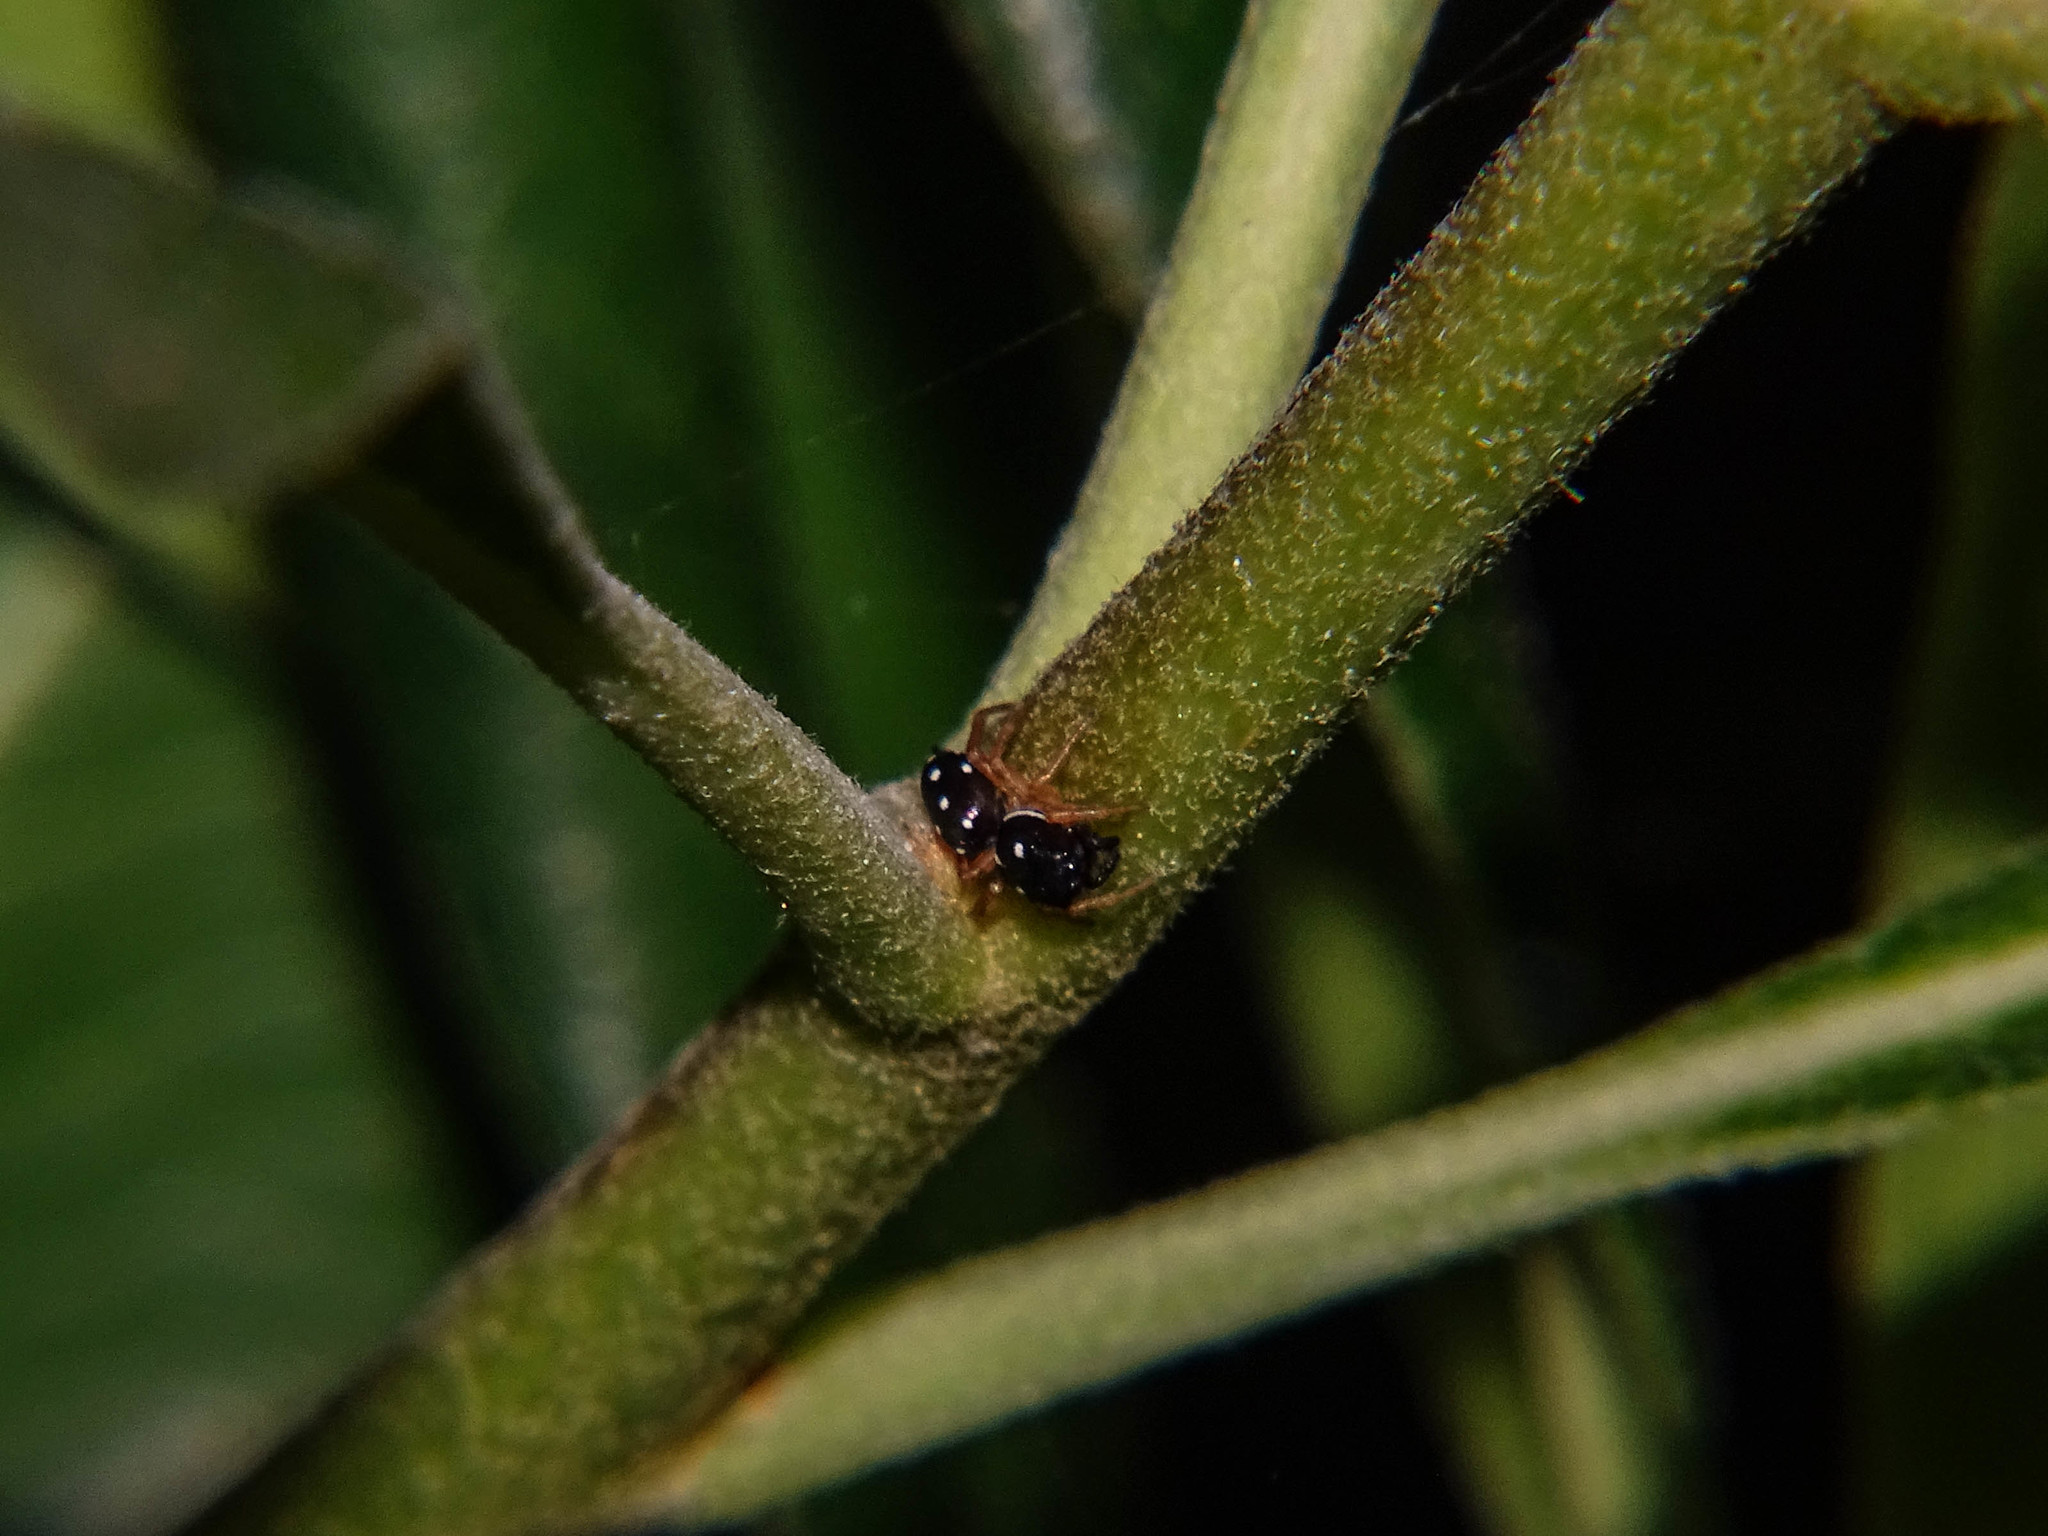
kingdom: Animalia
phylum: Arthropoda
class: Arachnida
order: Araneae
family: Salticidae
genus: Heliophanillus
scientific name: Heliophanillus fulgens
